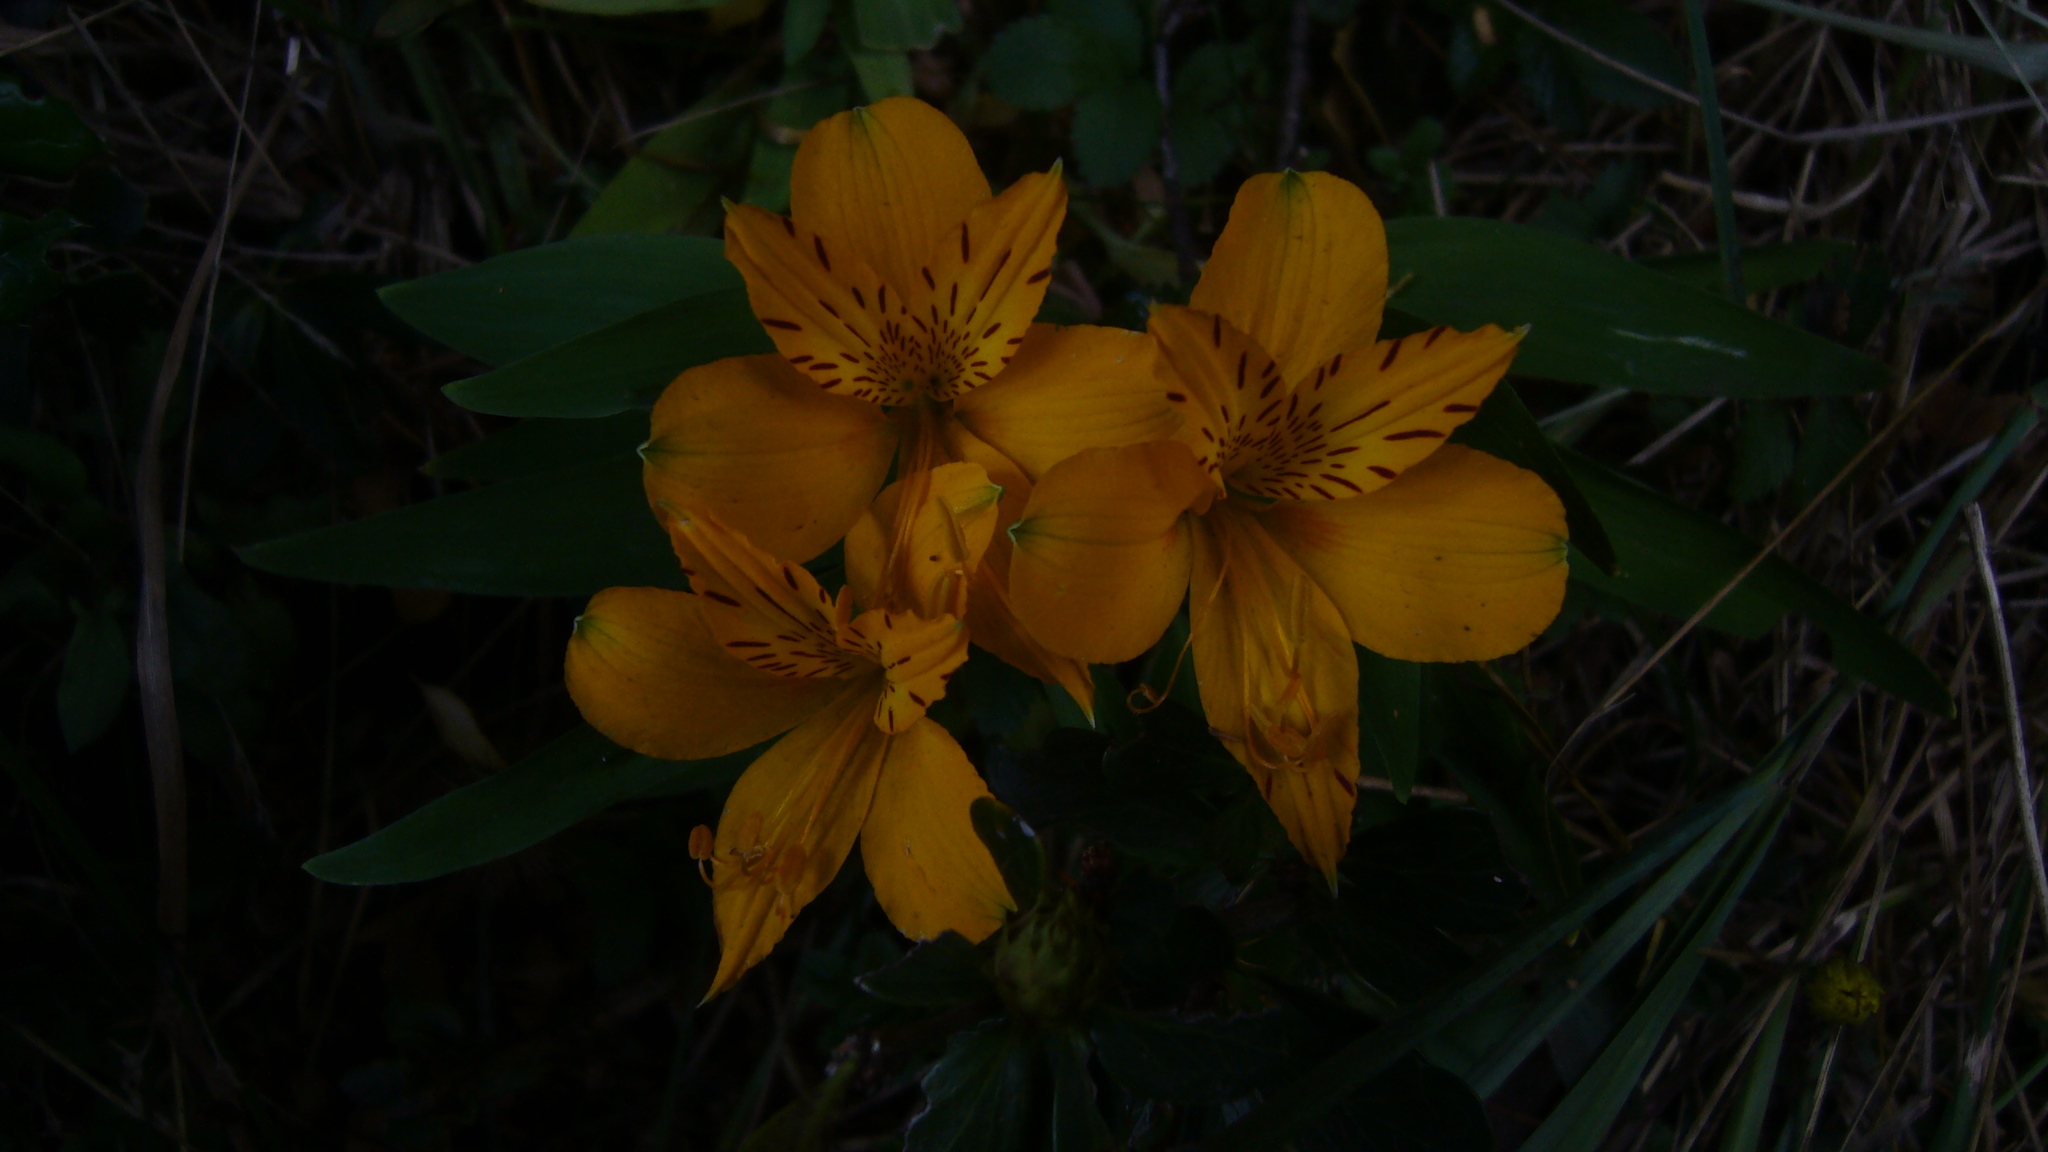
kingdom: Plantae
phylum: Tracheophyta
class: Liliopsida
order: Liliales
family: Alstroemeriaceae
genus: Alstroemeria
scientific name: Alstroemeria aurea
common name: Peruvian lily
